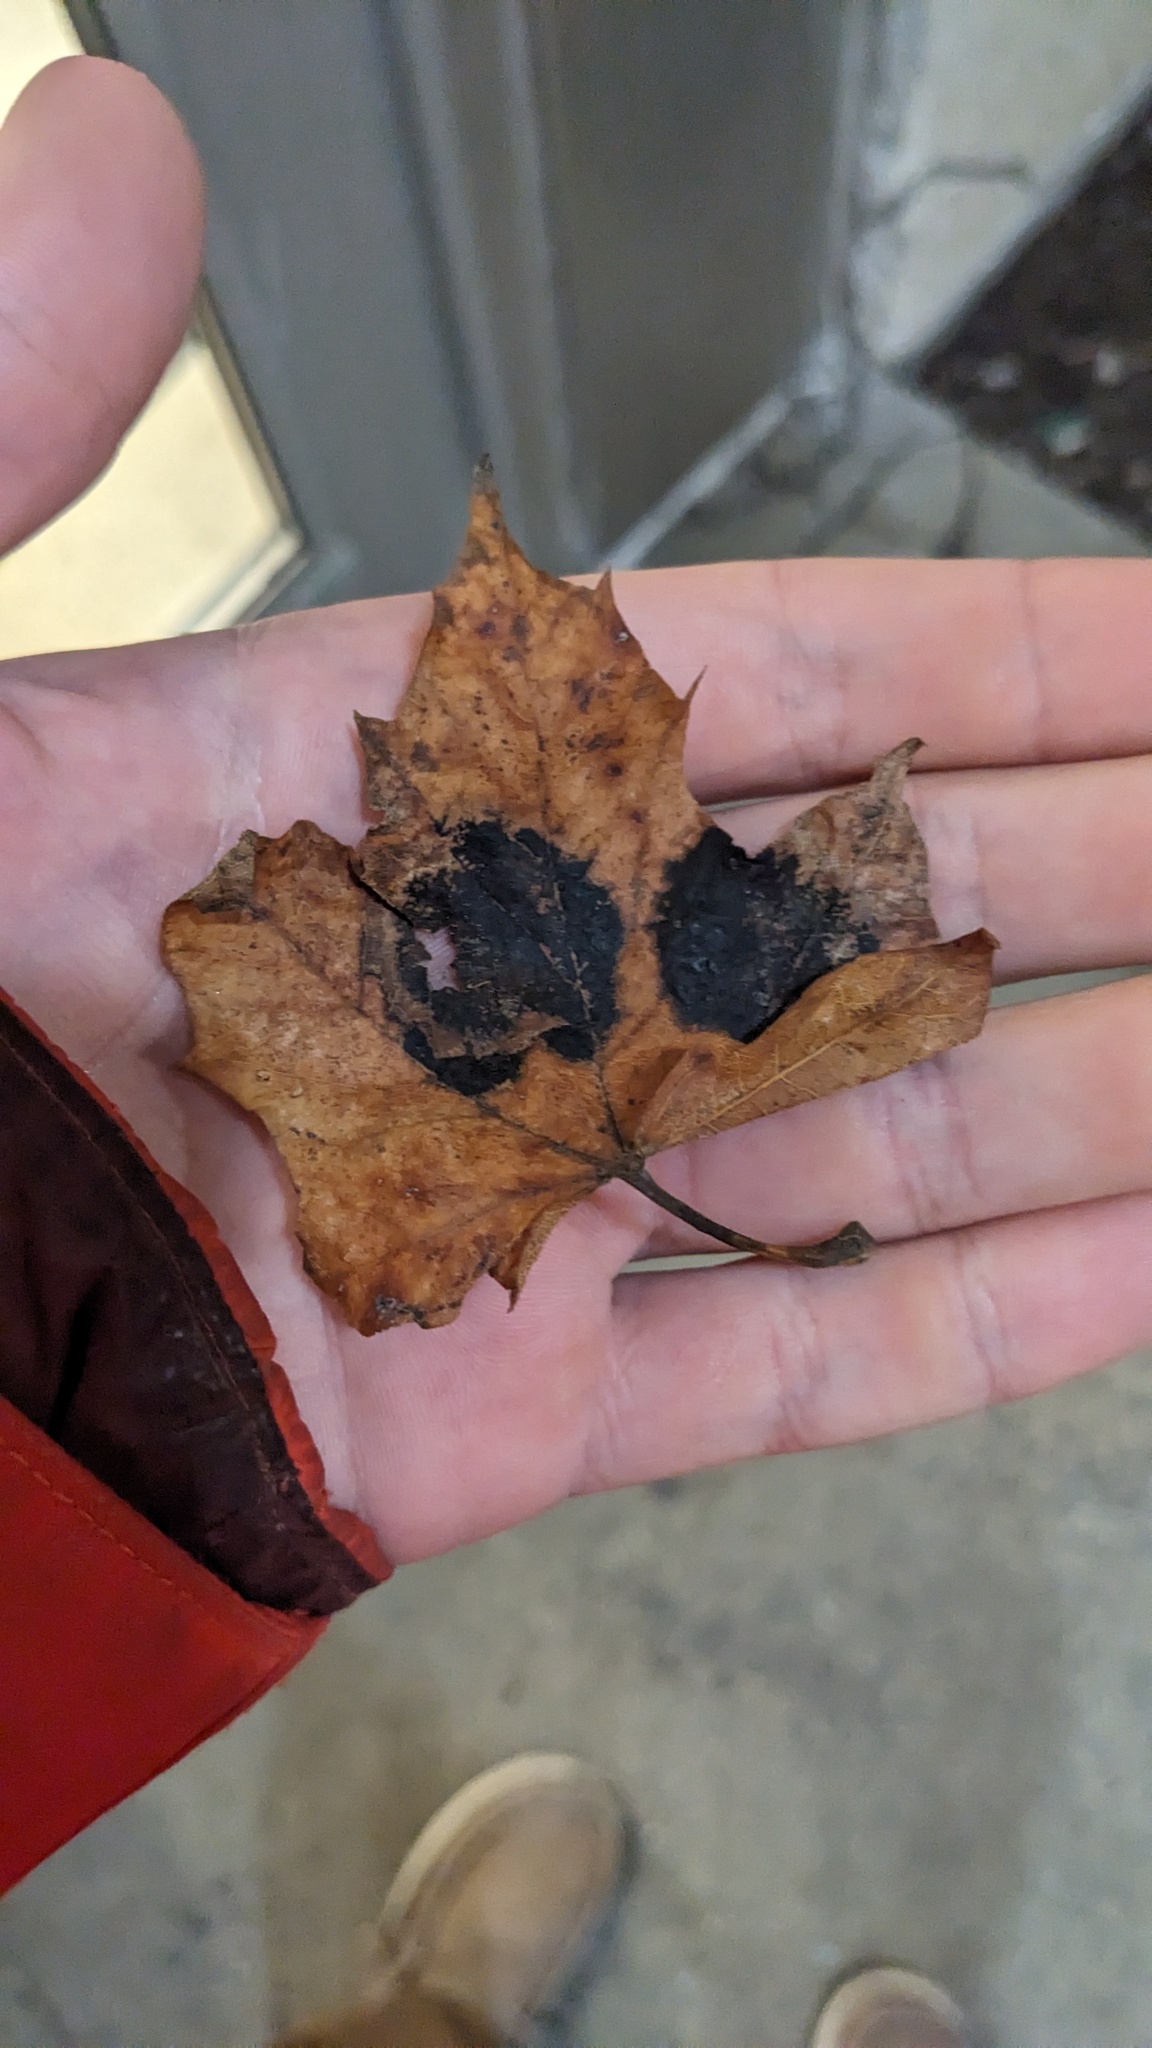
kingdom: Fungi
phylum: Ascomycota
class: Leotiomycetes
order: Rhytismatales
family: Rhytismataceae
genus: Rhytisma
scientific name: Rhytisma acerinum
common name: European tar spot
